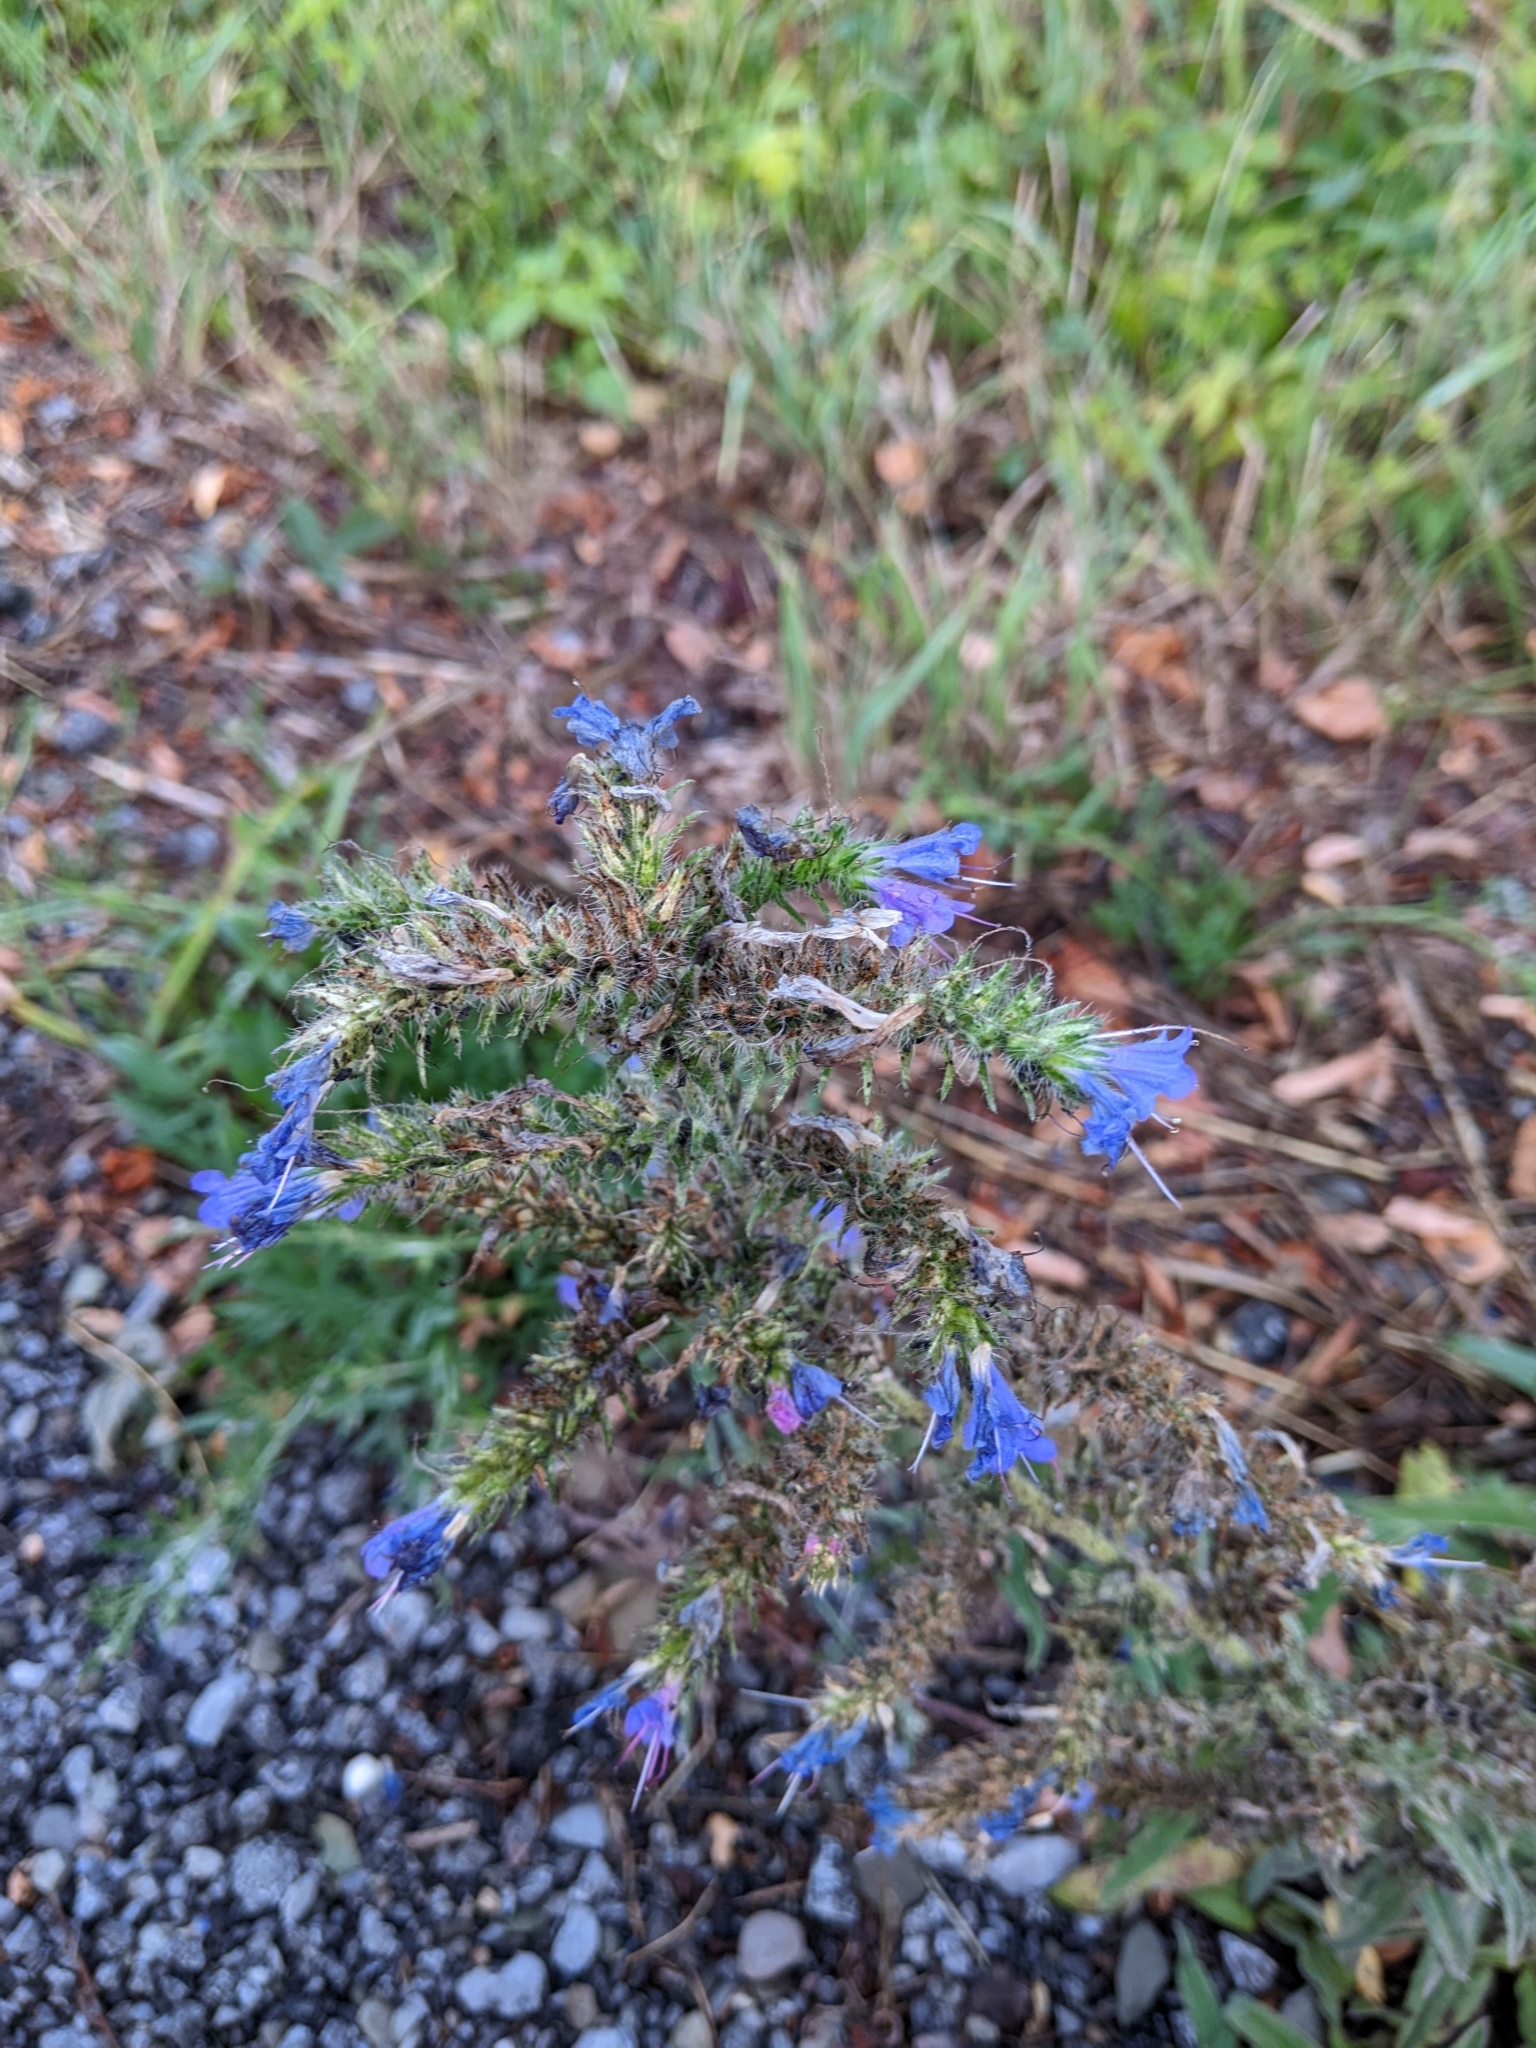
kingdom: Plantae
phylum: Tracheophyta
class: Magnoliopsida
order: Boraginales
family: Boraginaceae
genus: Echium
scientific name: Echium vulgare
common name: Common viper's bugloss
